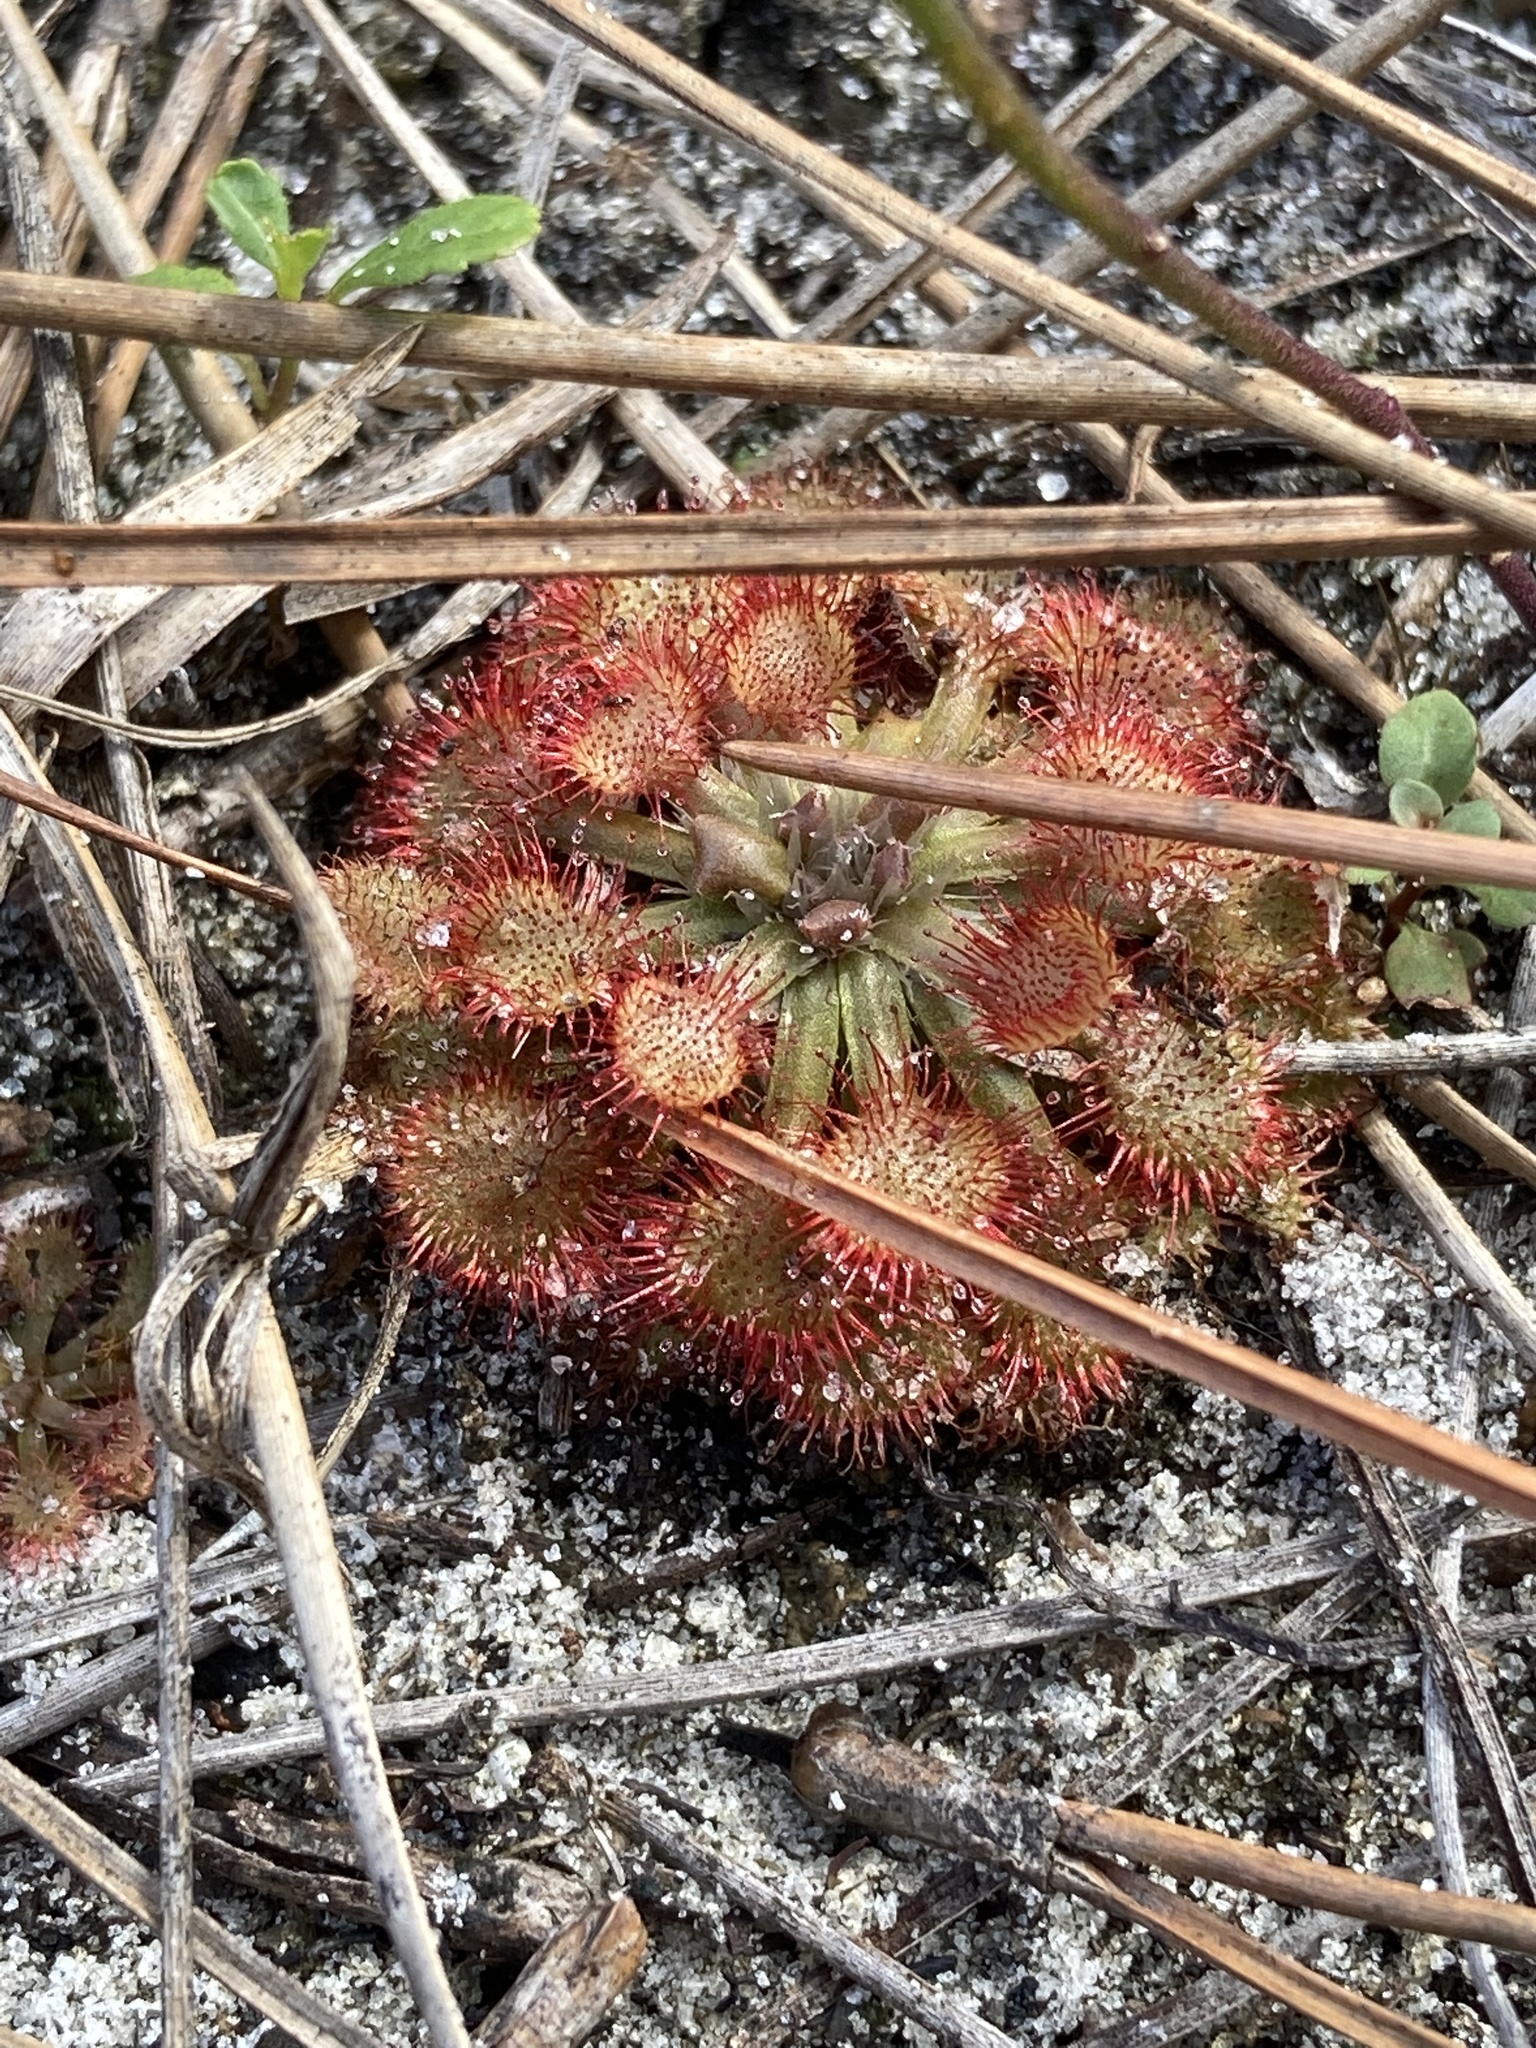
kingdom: Plantae
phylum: Tracheophyta
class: Magnoliopsida
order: Caryophyllales
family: Droseraceae
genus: Drosera
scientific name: Drosera capillaris
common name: Pink sundew
